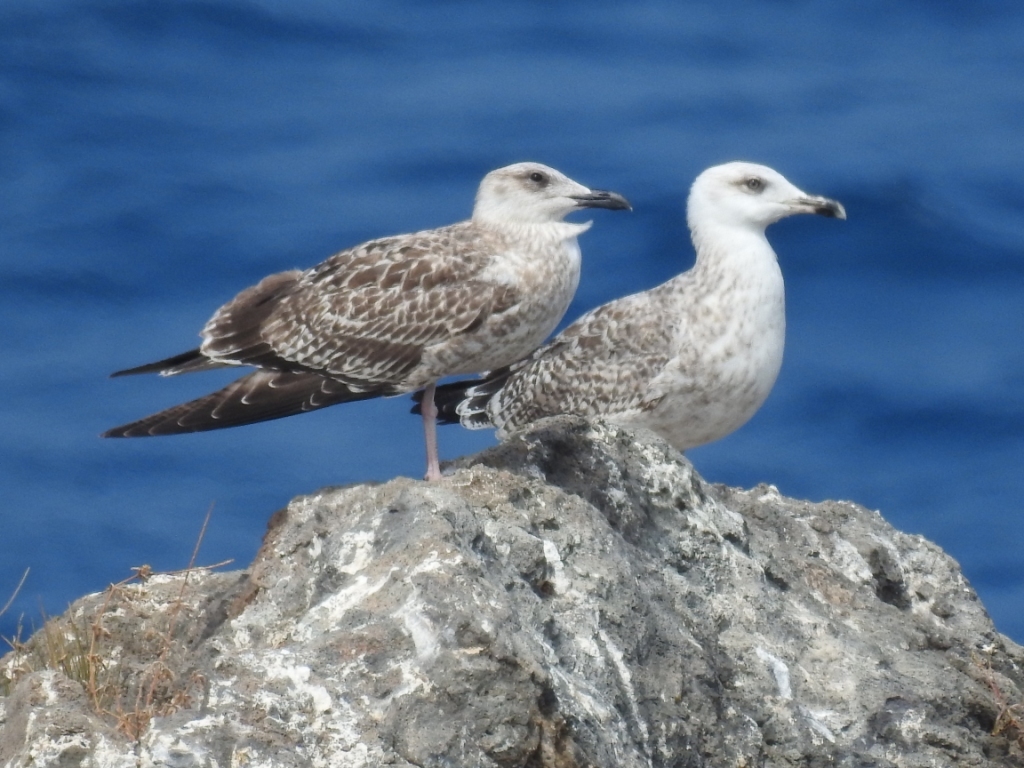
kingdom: Animalia
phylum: Chordata
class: Aves
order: Charadriiformes
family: Laridae
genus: Larus
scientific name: Larus michahellis
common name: Yellow-legged gull
